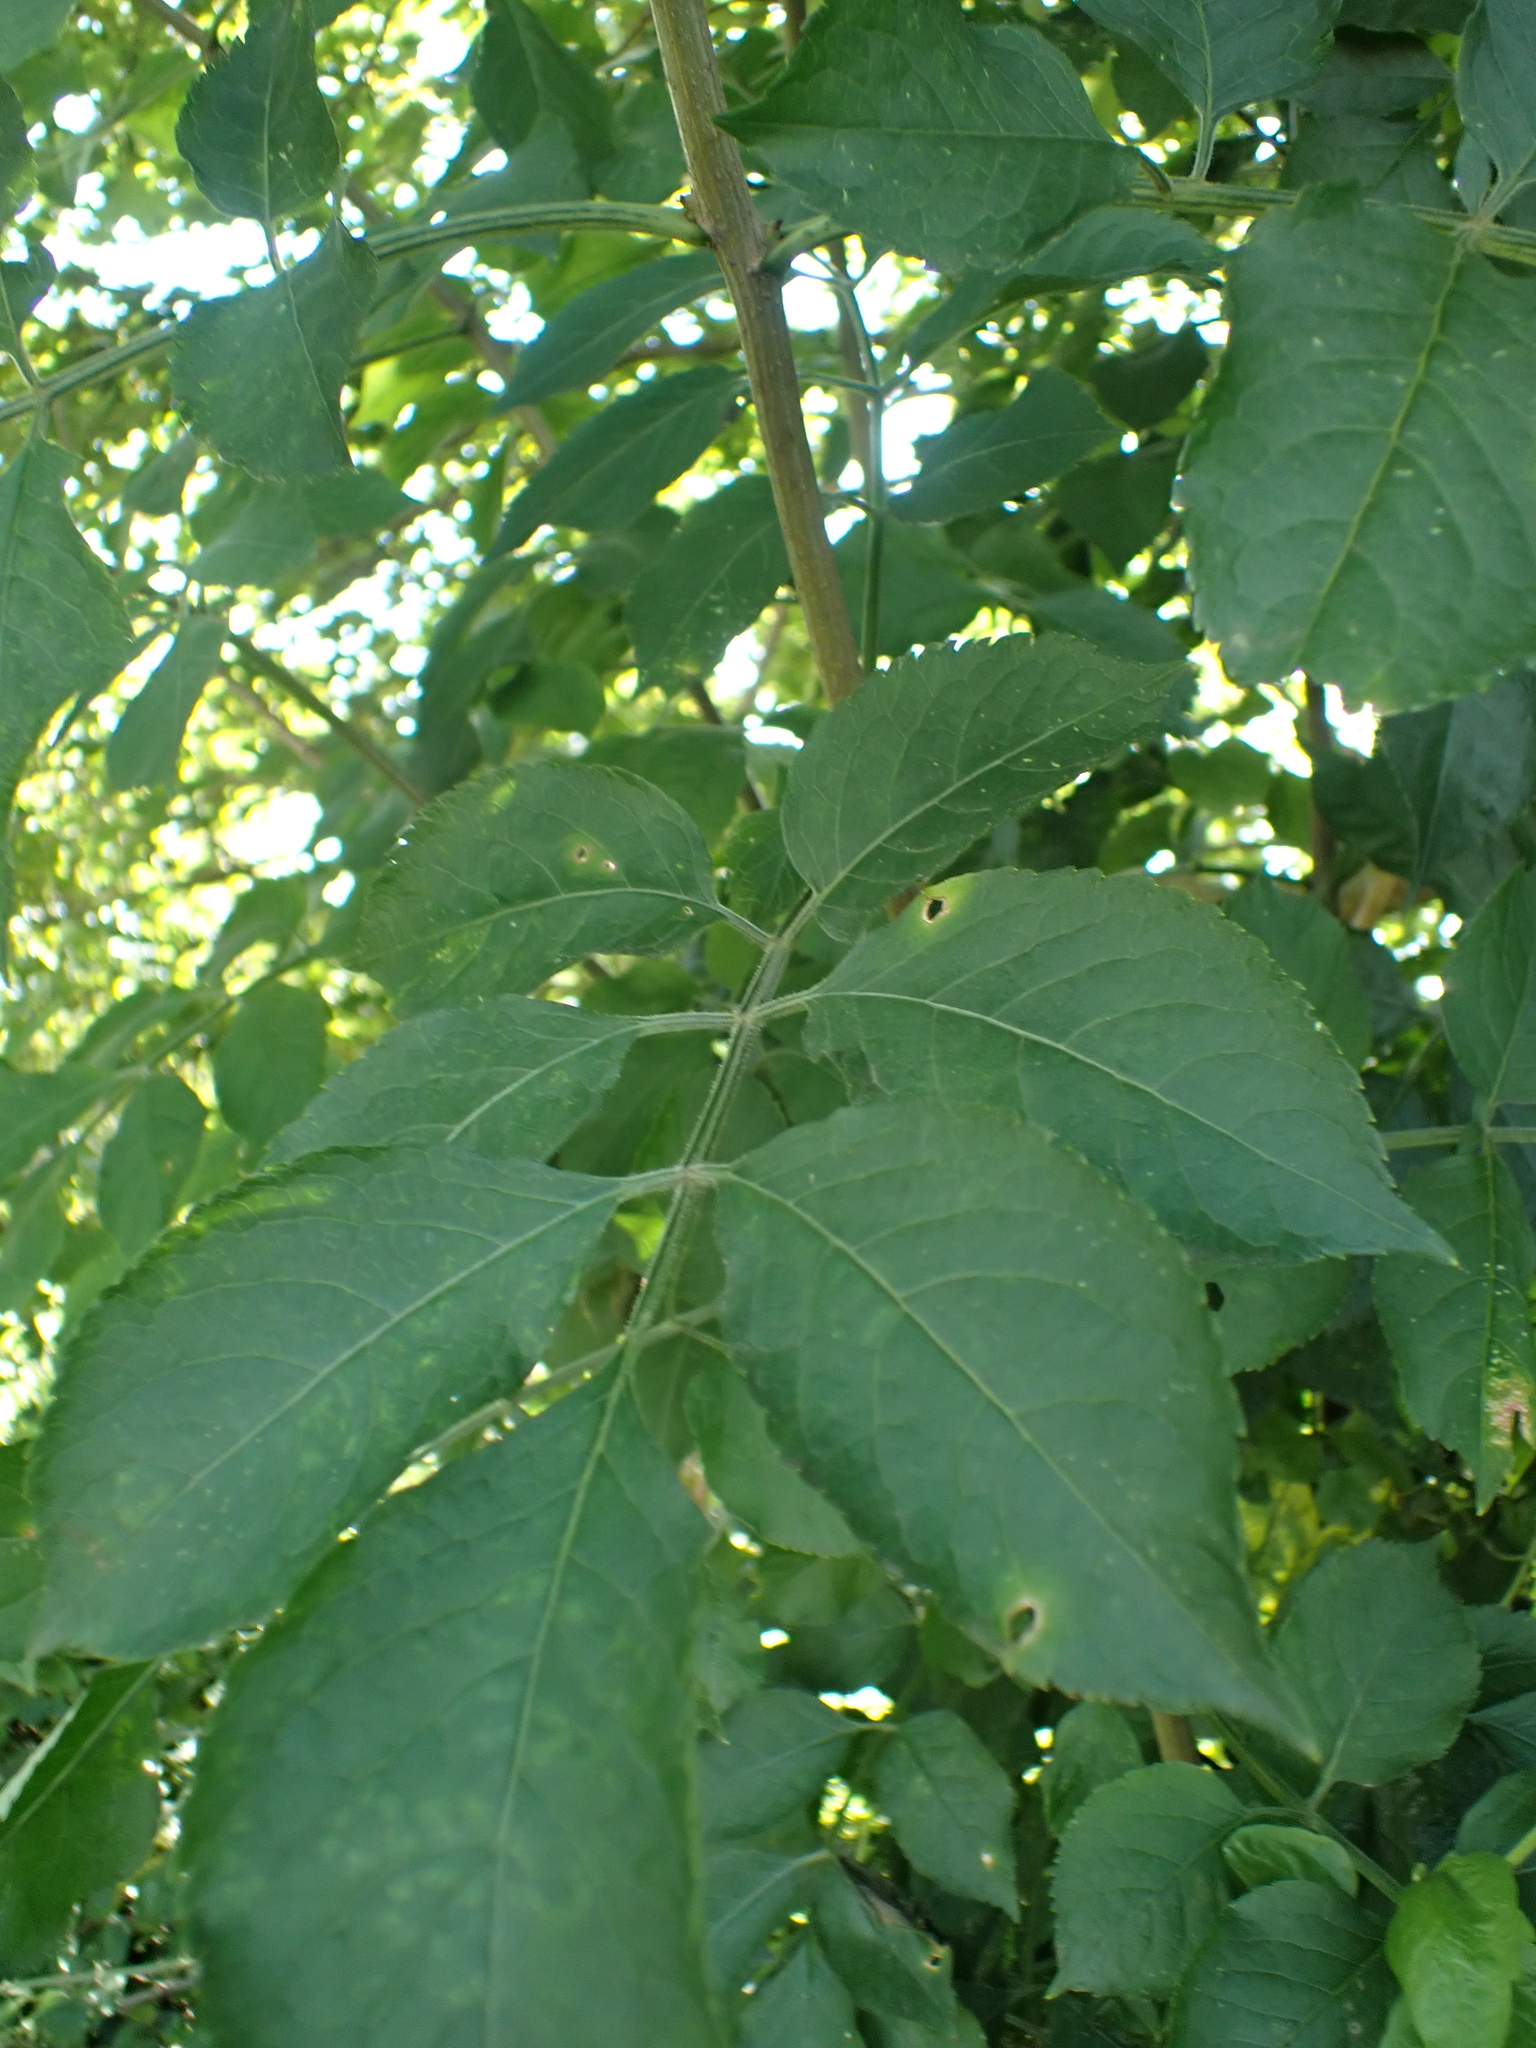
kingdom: Plantae
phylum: Tracheophyta
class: Magnoliopsida
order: Dipsacales
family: Viburnaceae
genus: Sambucus
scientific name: Sambucus nigra
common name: Elder
